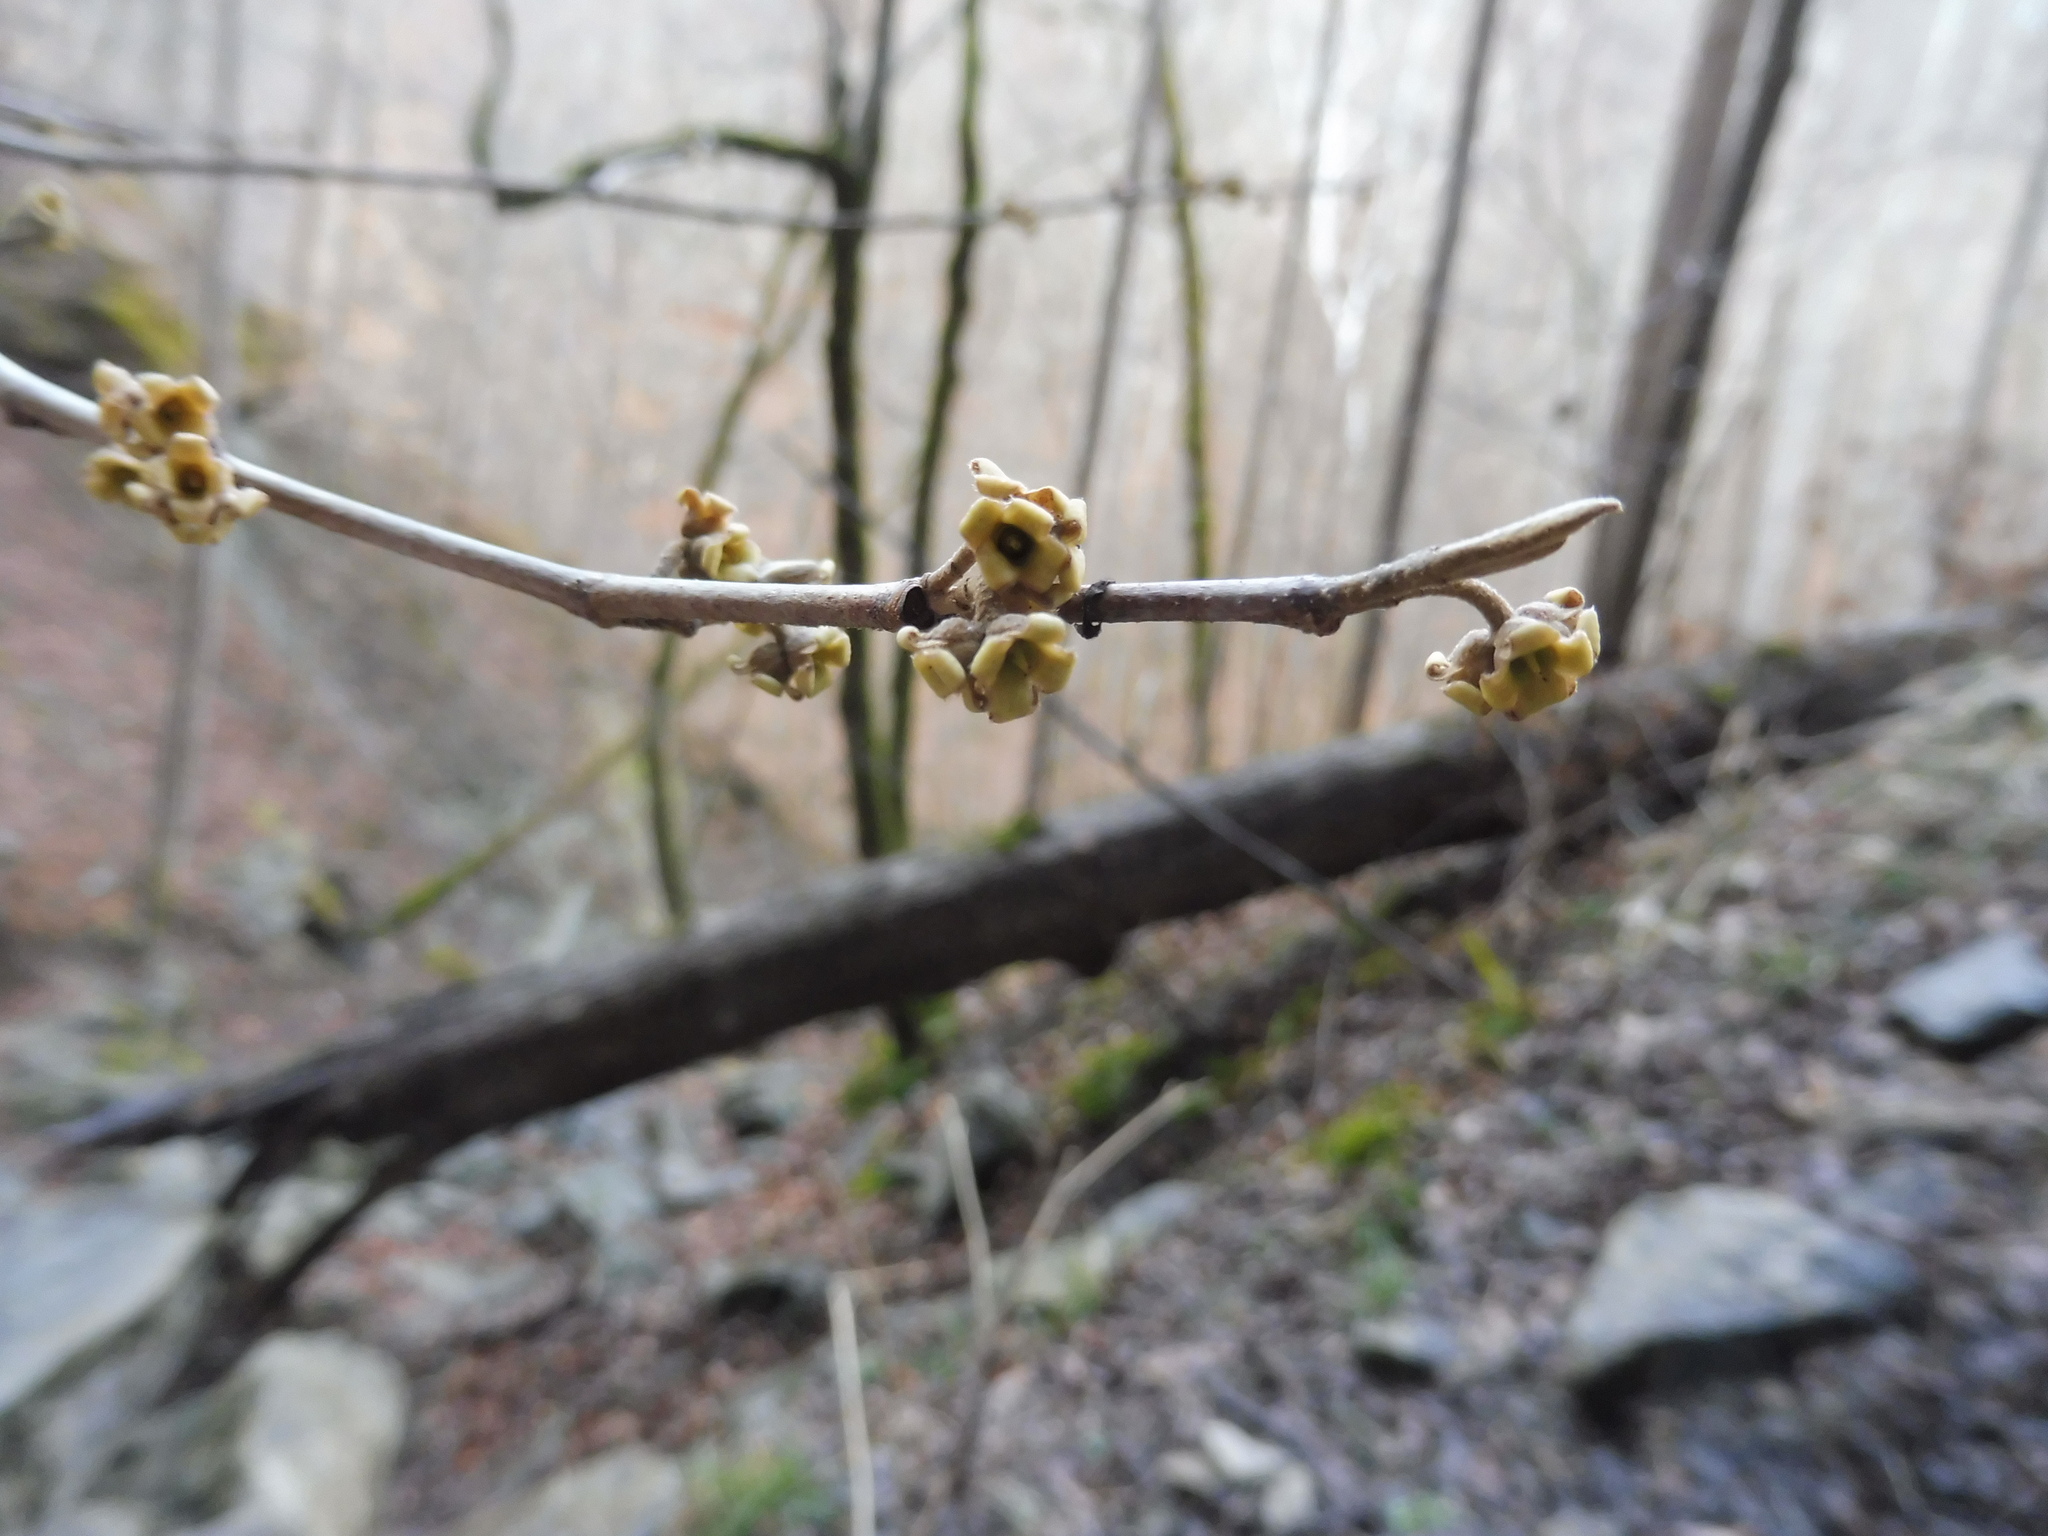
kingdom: Plantae
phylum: Tracheophyta
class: Magnoliopsida
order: Saxifragales
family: Hamamelidaceae
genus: Hamamelis
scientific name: Hamamelis virginiana
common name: Witch-hazel
